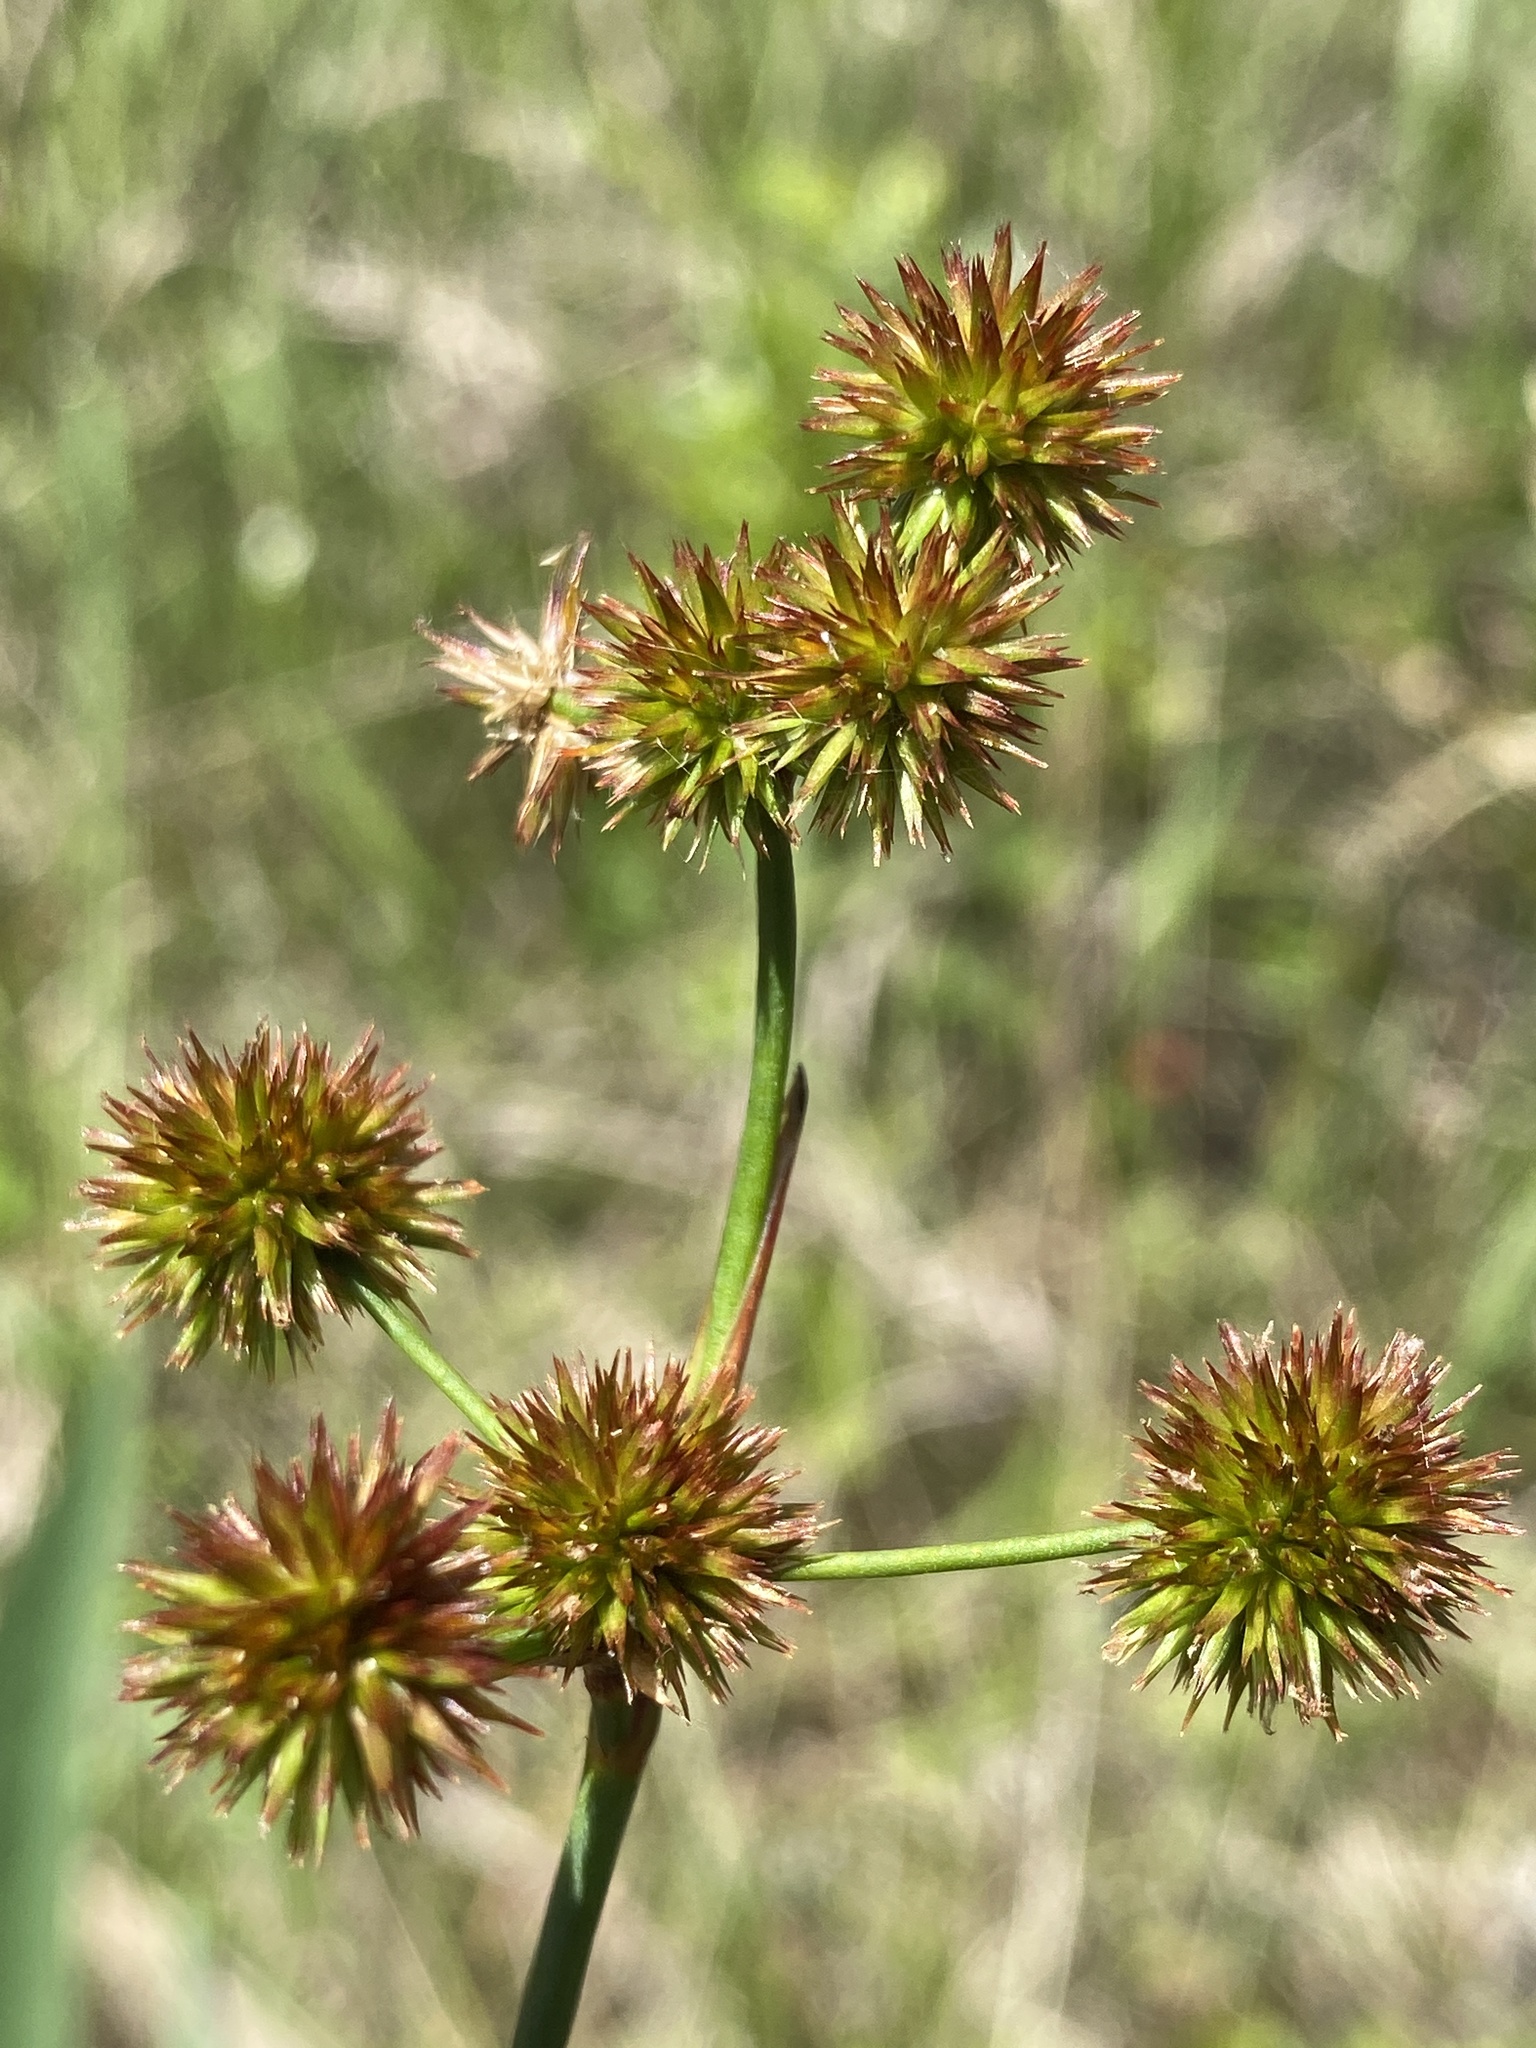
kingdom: Plantae
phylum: Tracheophyta
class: Liliopsida
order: Poales
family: Juncaceae
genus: Juncus
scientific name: Juncus megacephalus
